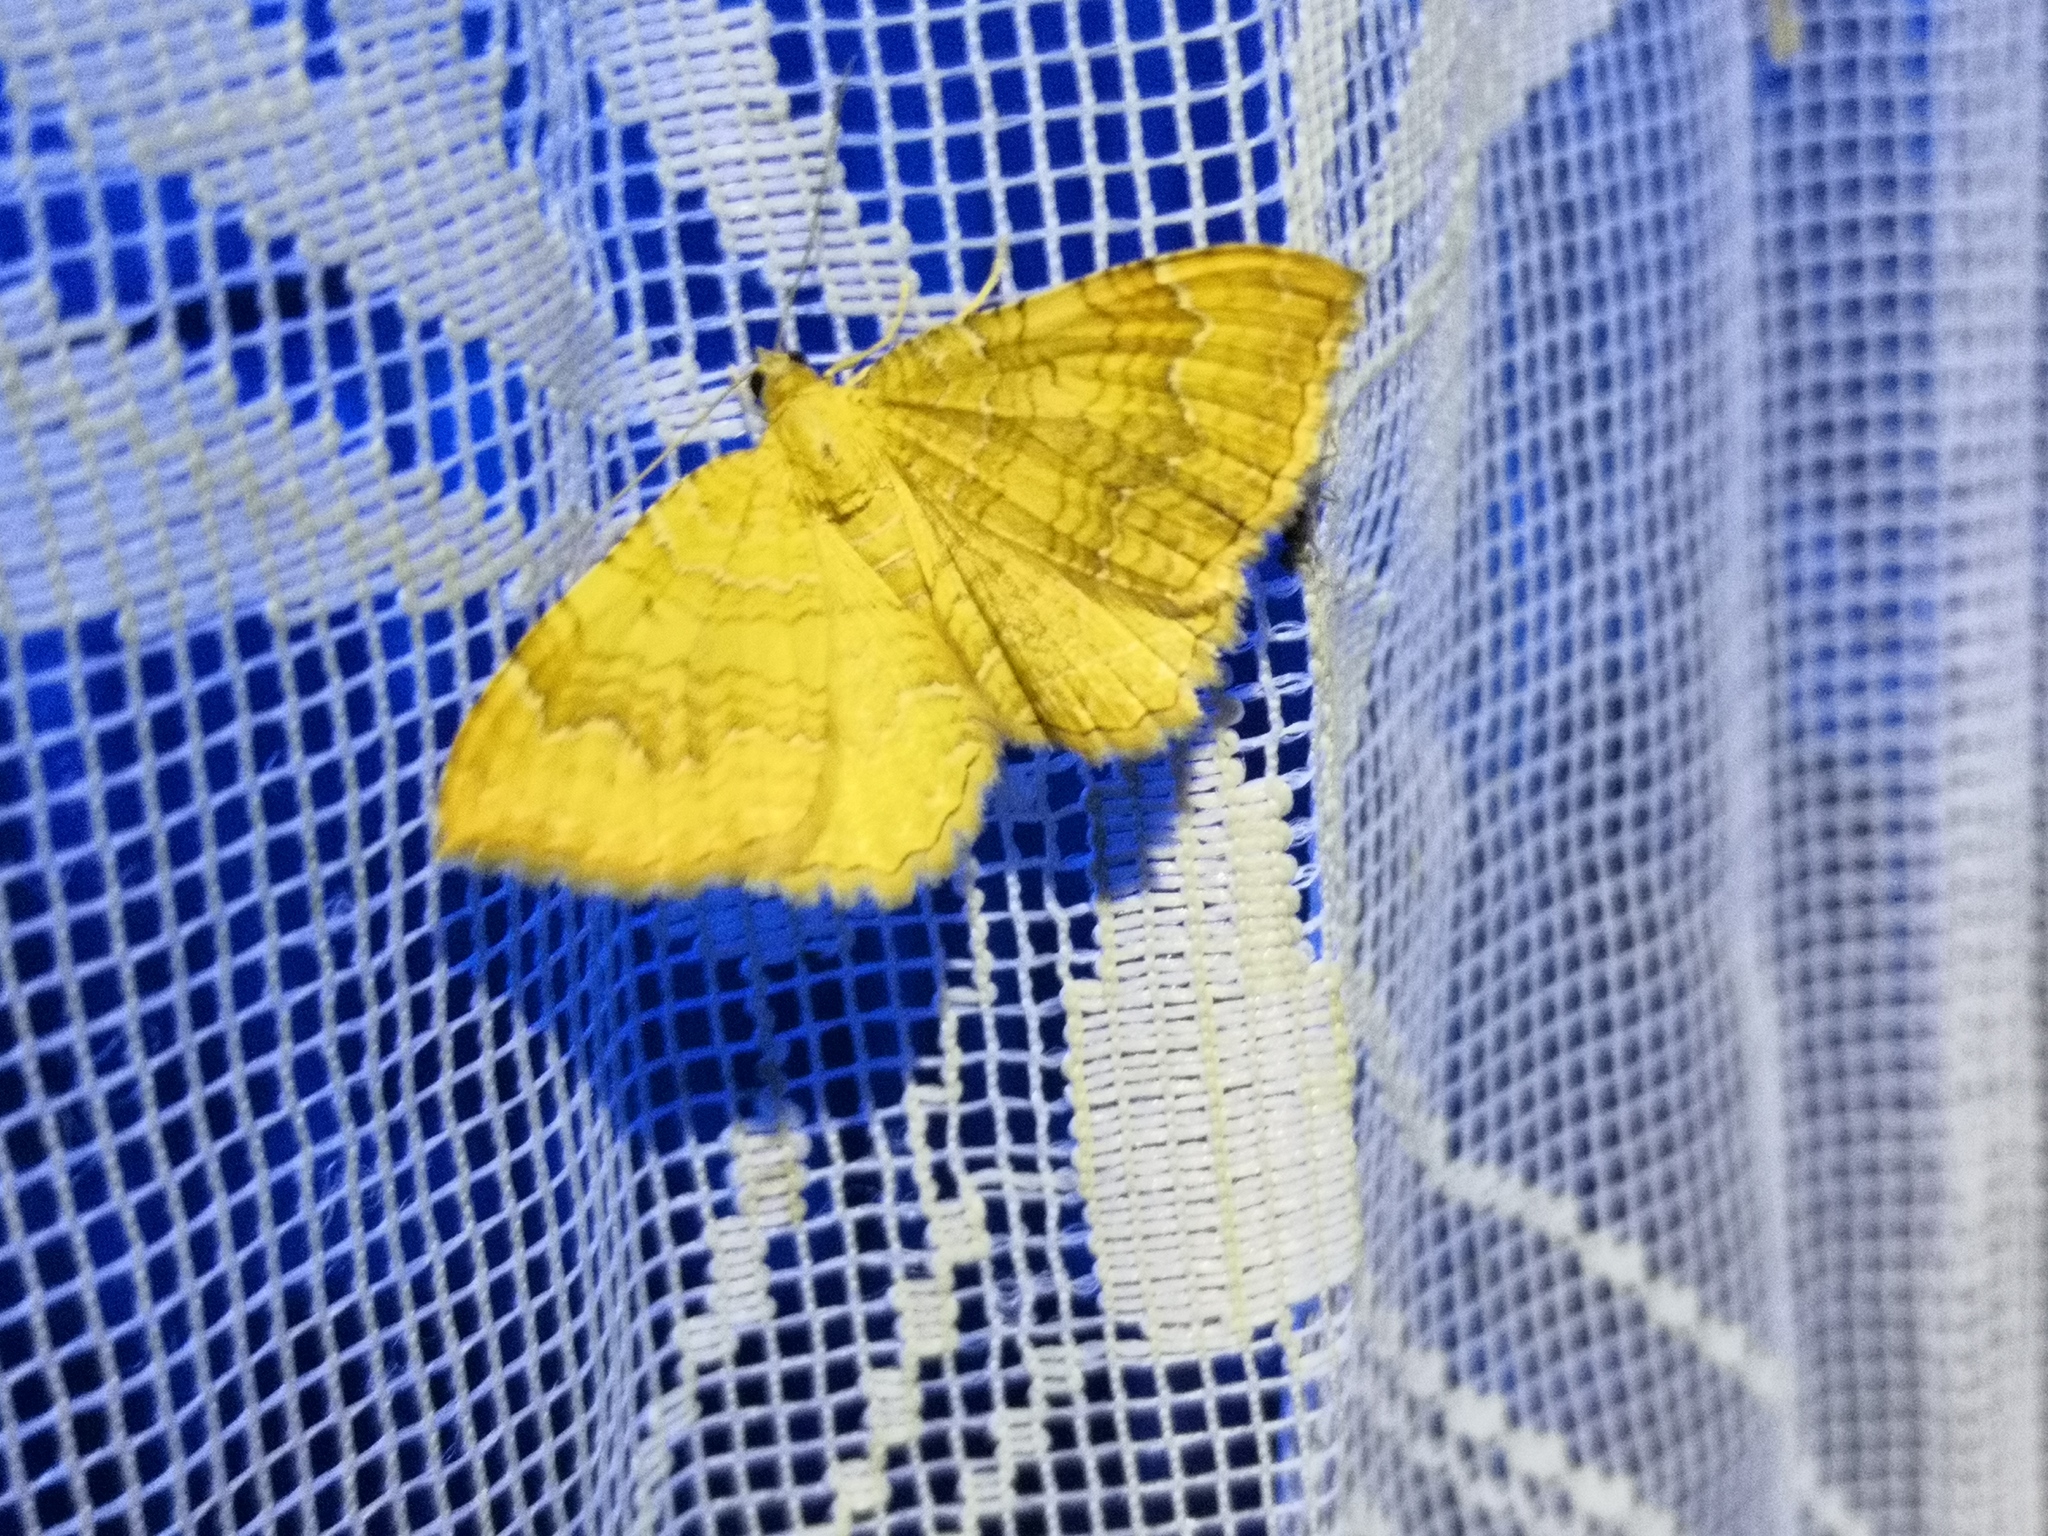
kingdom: Animalia
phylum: Arthropoda
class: Insecta
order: Lepidoptera
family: Geometridae
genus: Camptogramma
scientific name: Camptogramma bilineata
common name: Yellow shell
